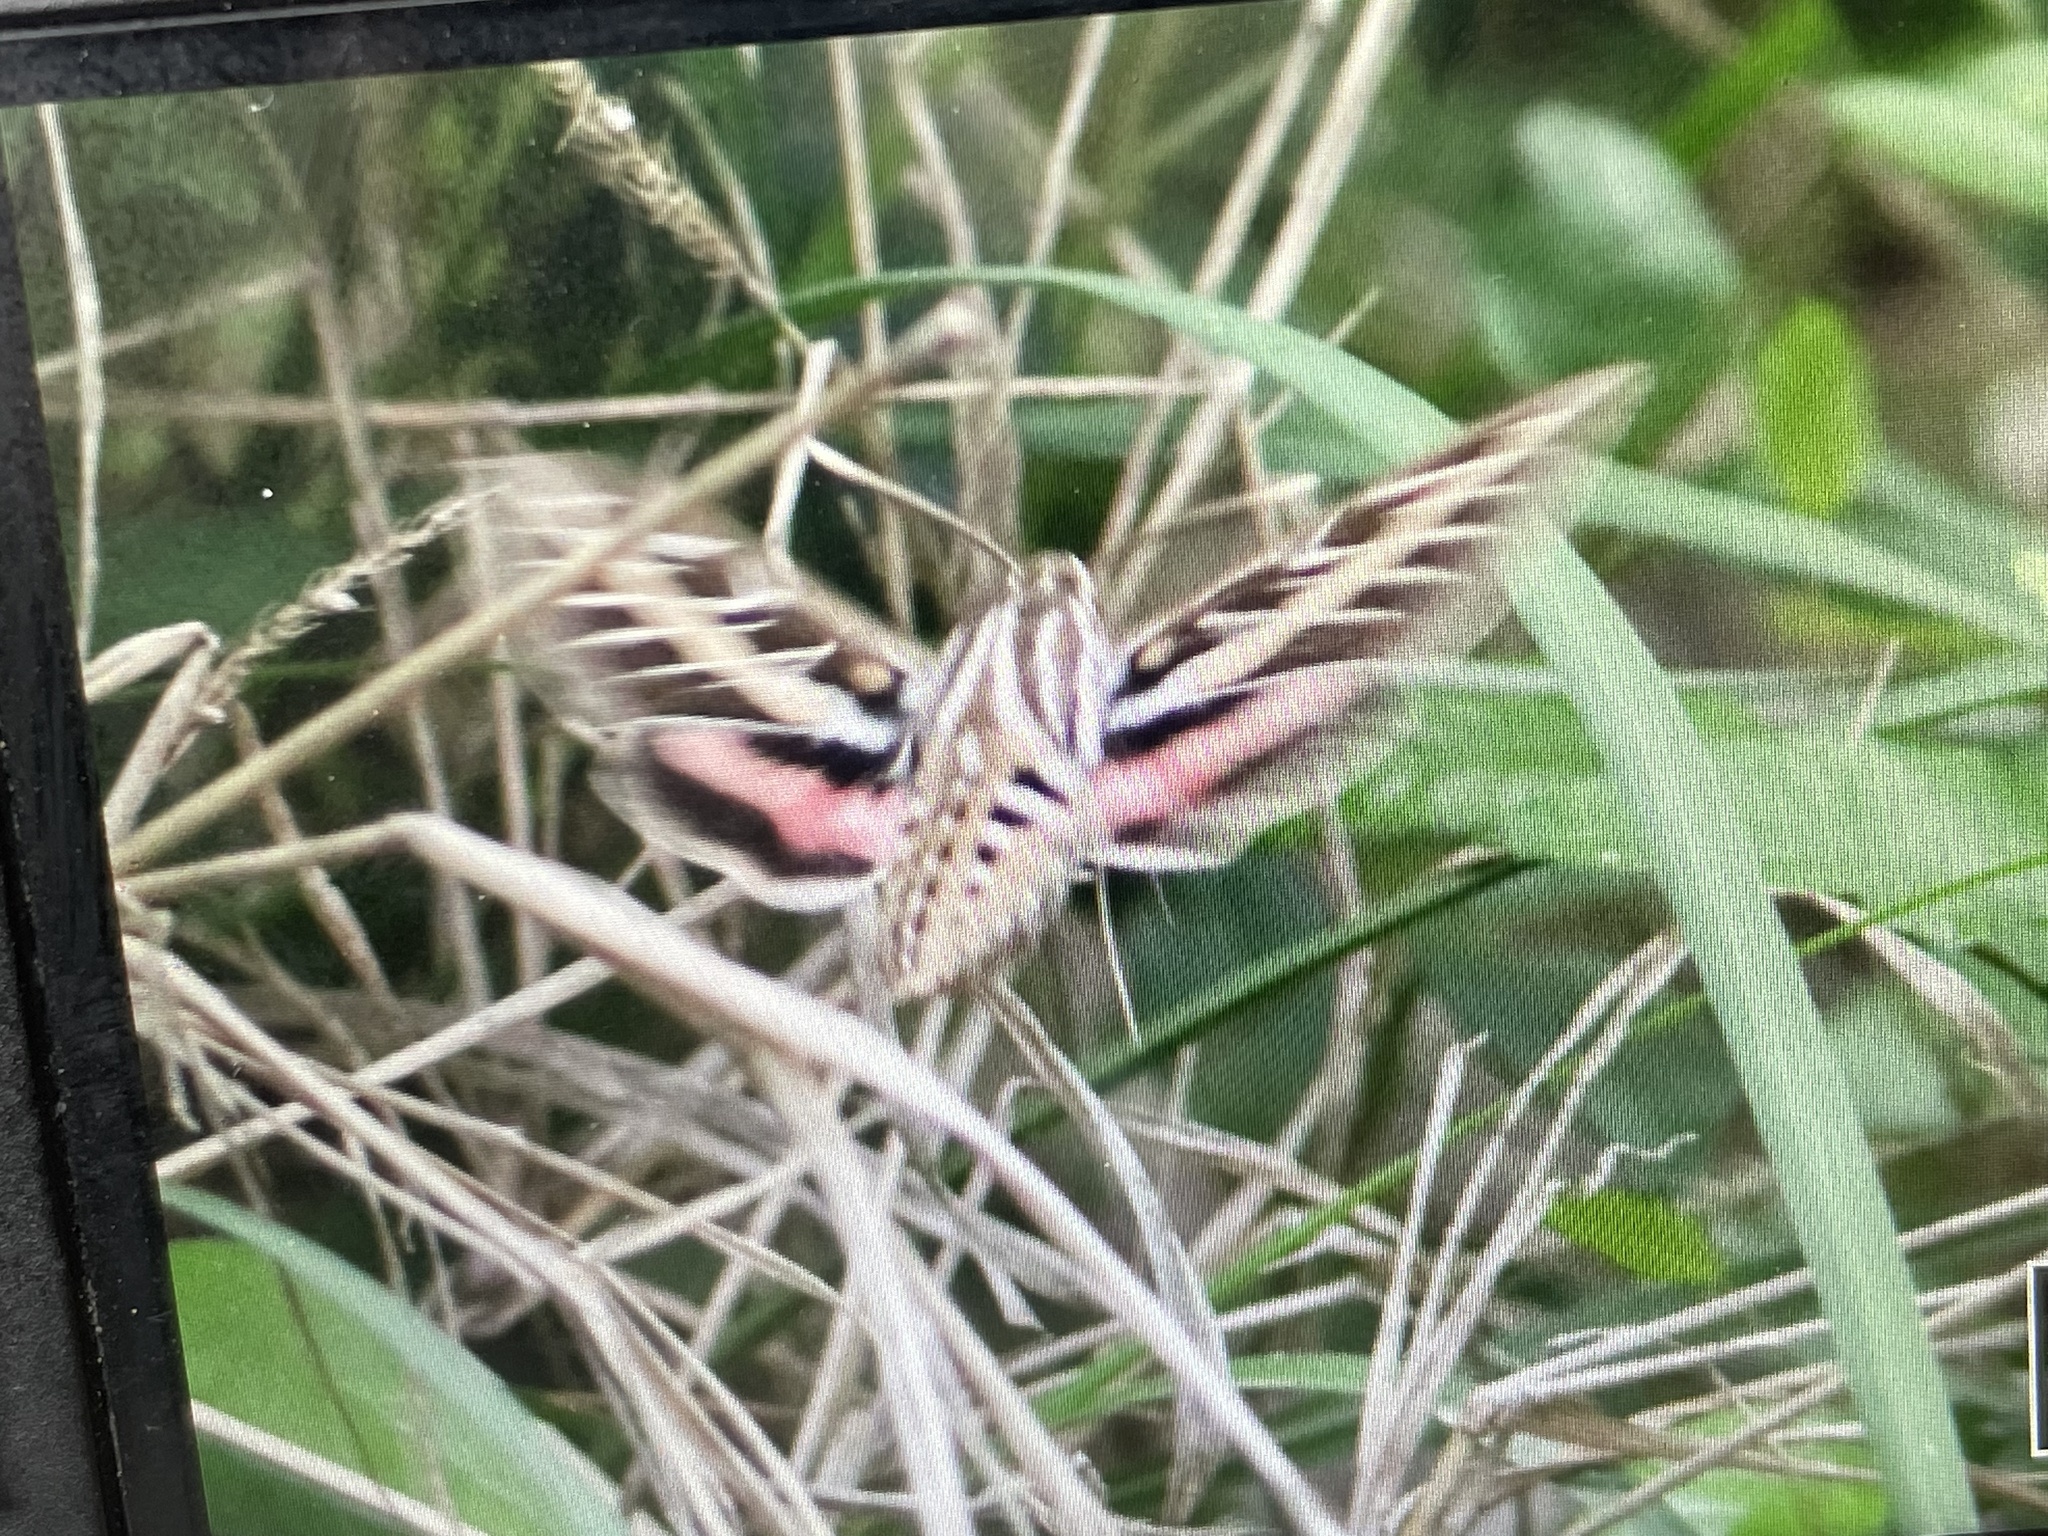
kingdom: Animalia
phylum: Arthropoda
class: Insecta
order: Lepidoptera
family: Sphingidae
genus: Hyles
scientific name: Hyles lineata
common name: White-lined sphinx
